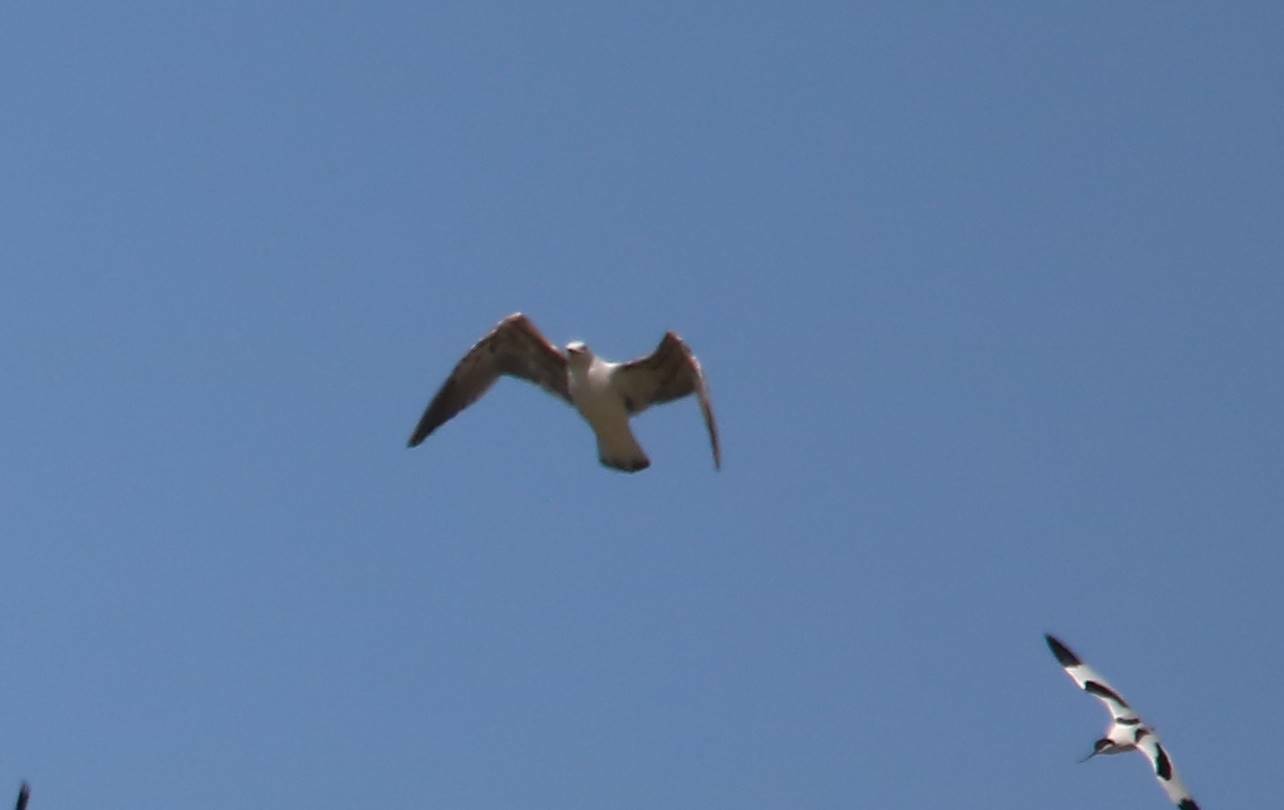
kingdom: Animalia
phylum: Chordata
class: Aves
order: Charadriiformes
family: Laridae
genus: Larus
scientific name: Larus michahellis
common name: Yellow-legged gull
